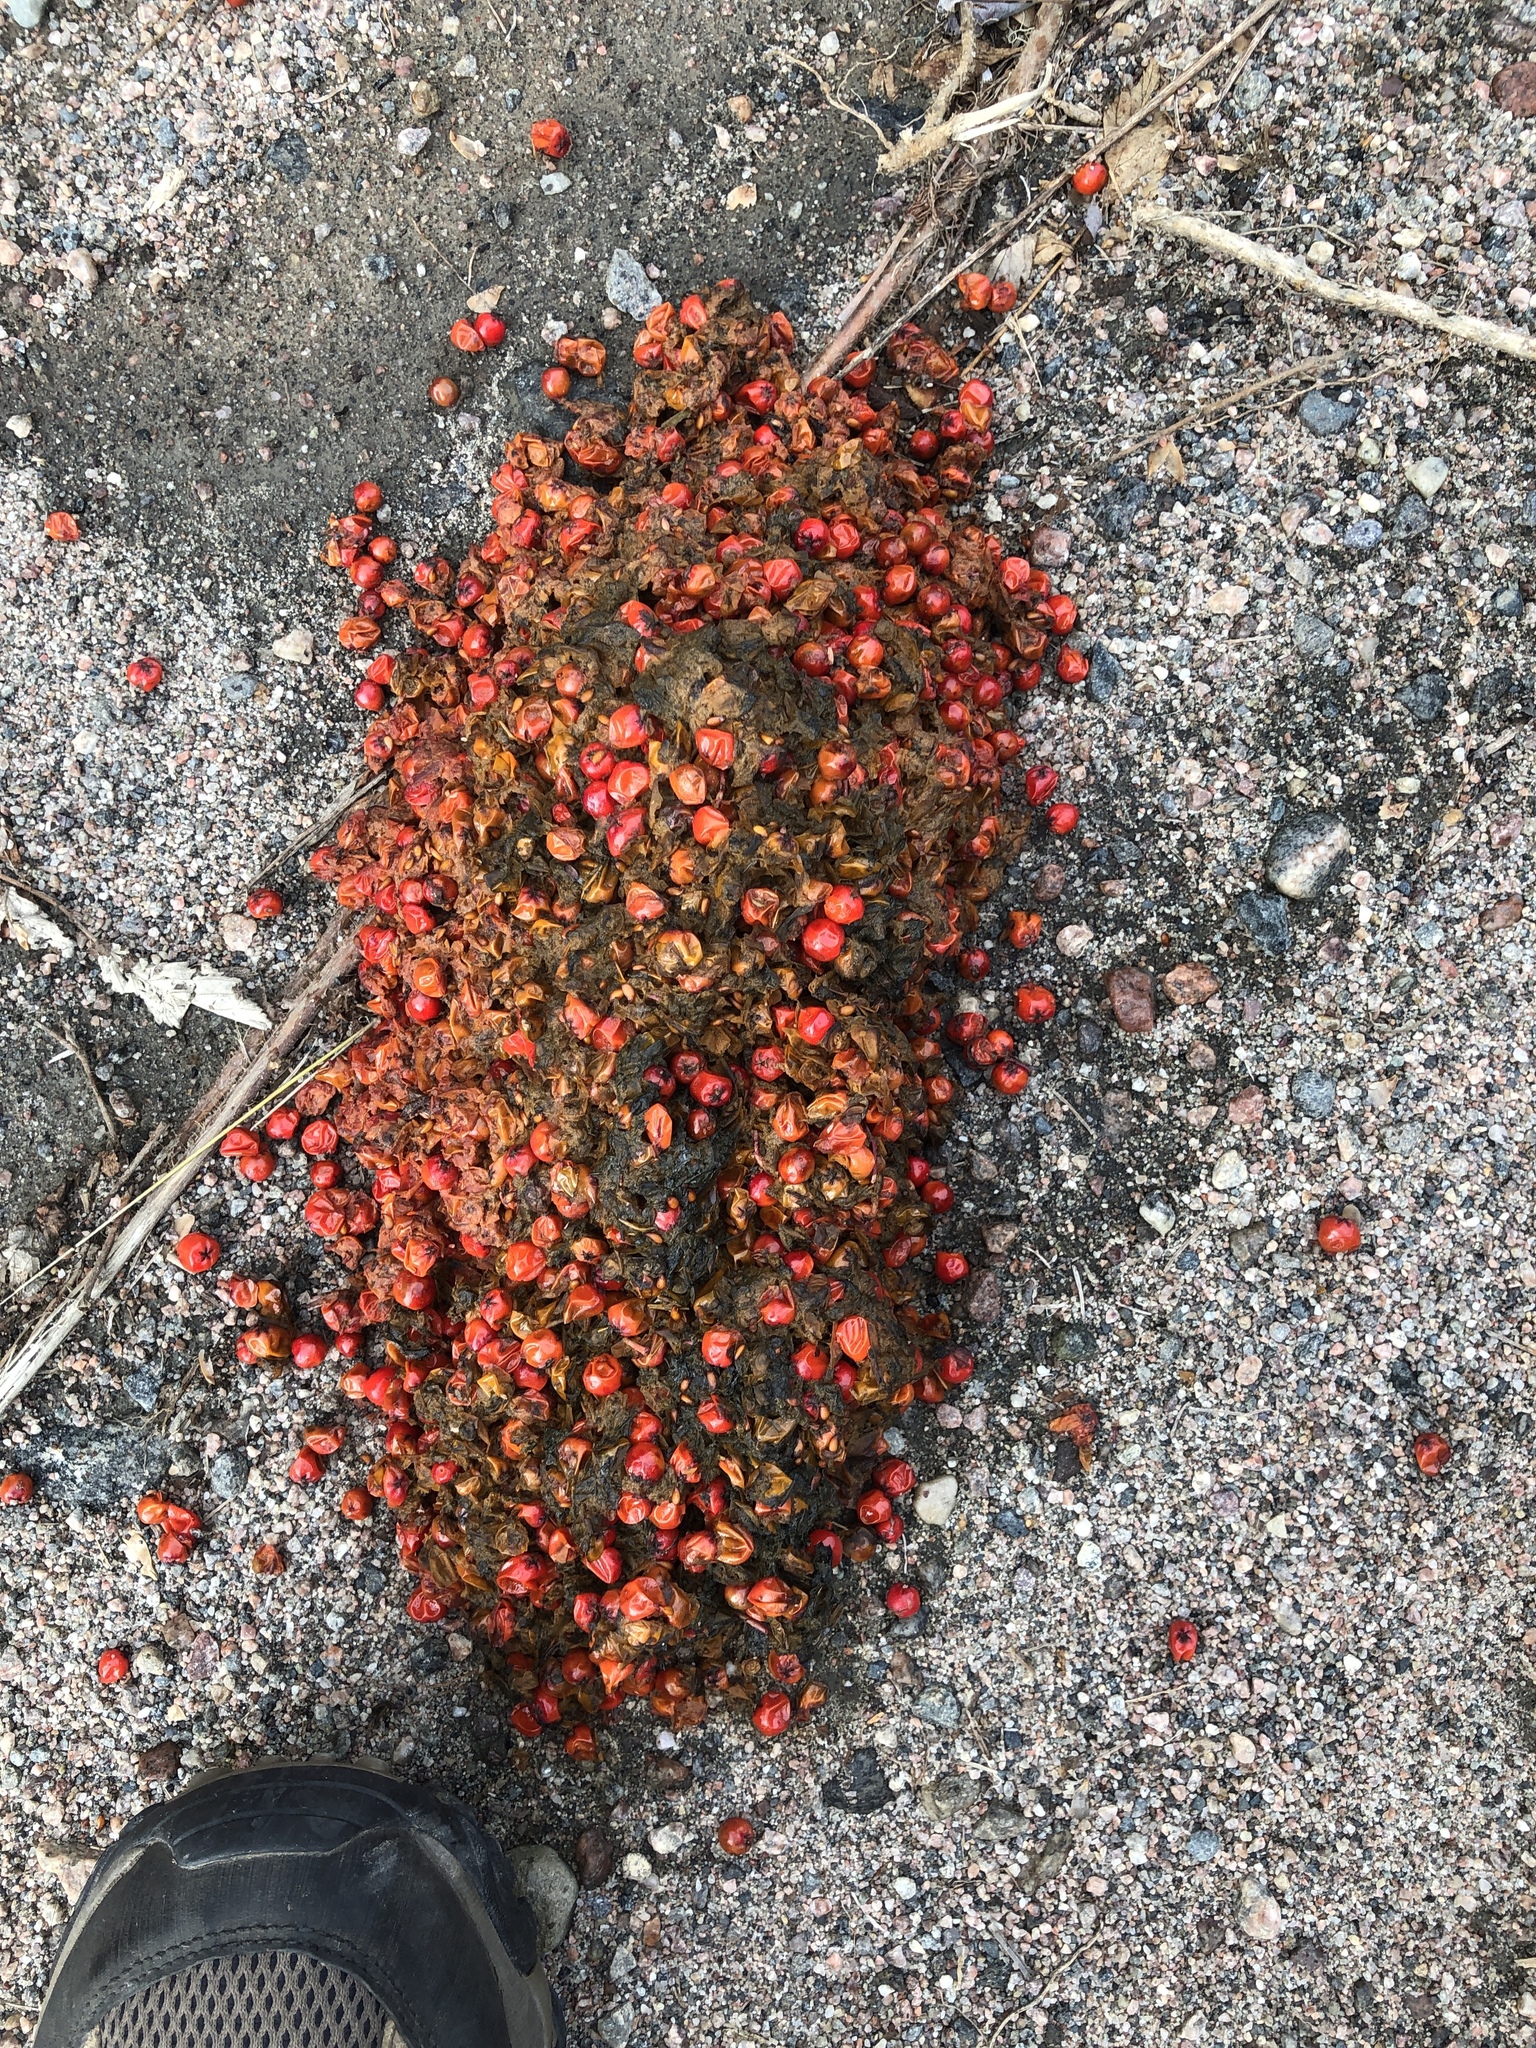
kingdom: Animalia
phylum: Chordata
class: Mammalia
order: Carnivora
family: Ursidae
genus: Ursus
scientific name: Ursus americanus
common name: American black bear
